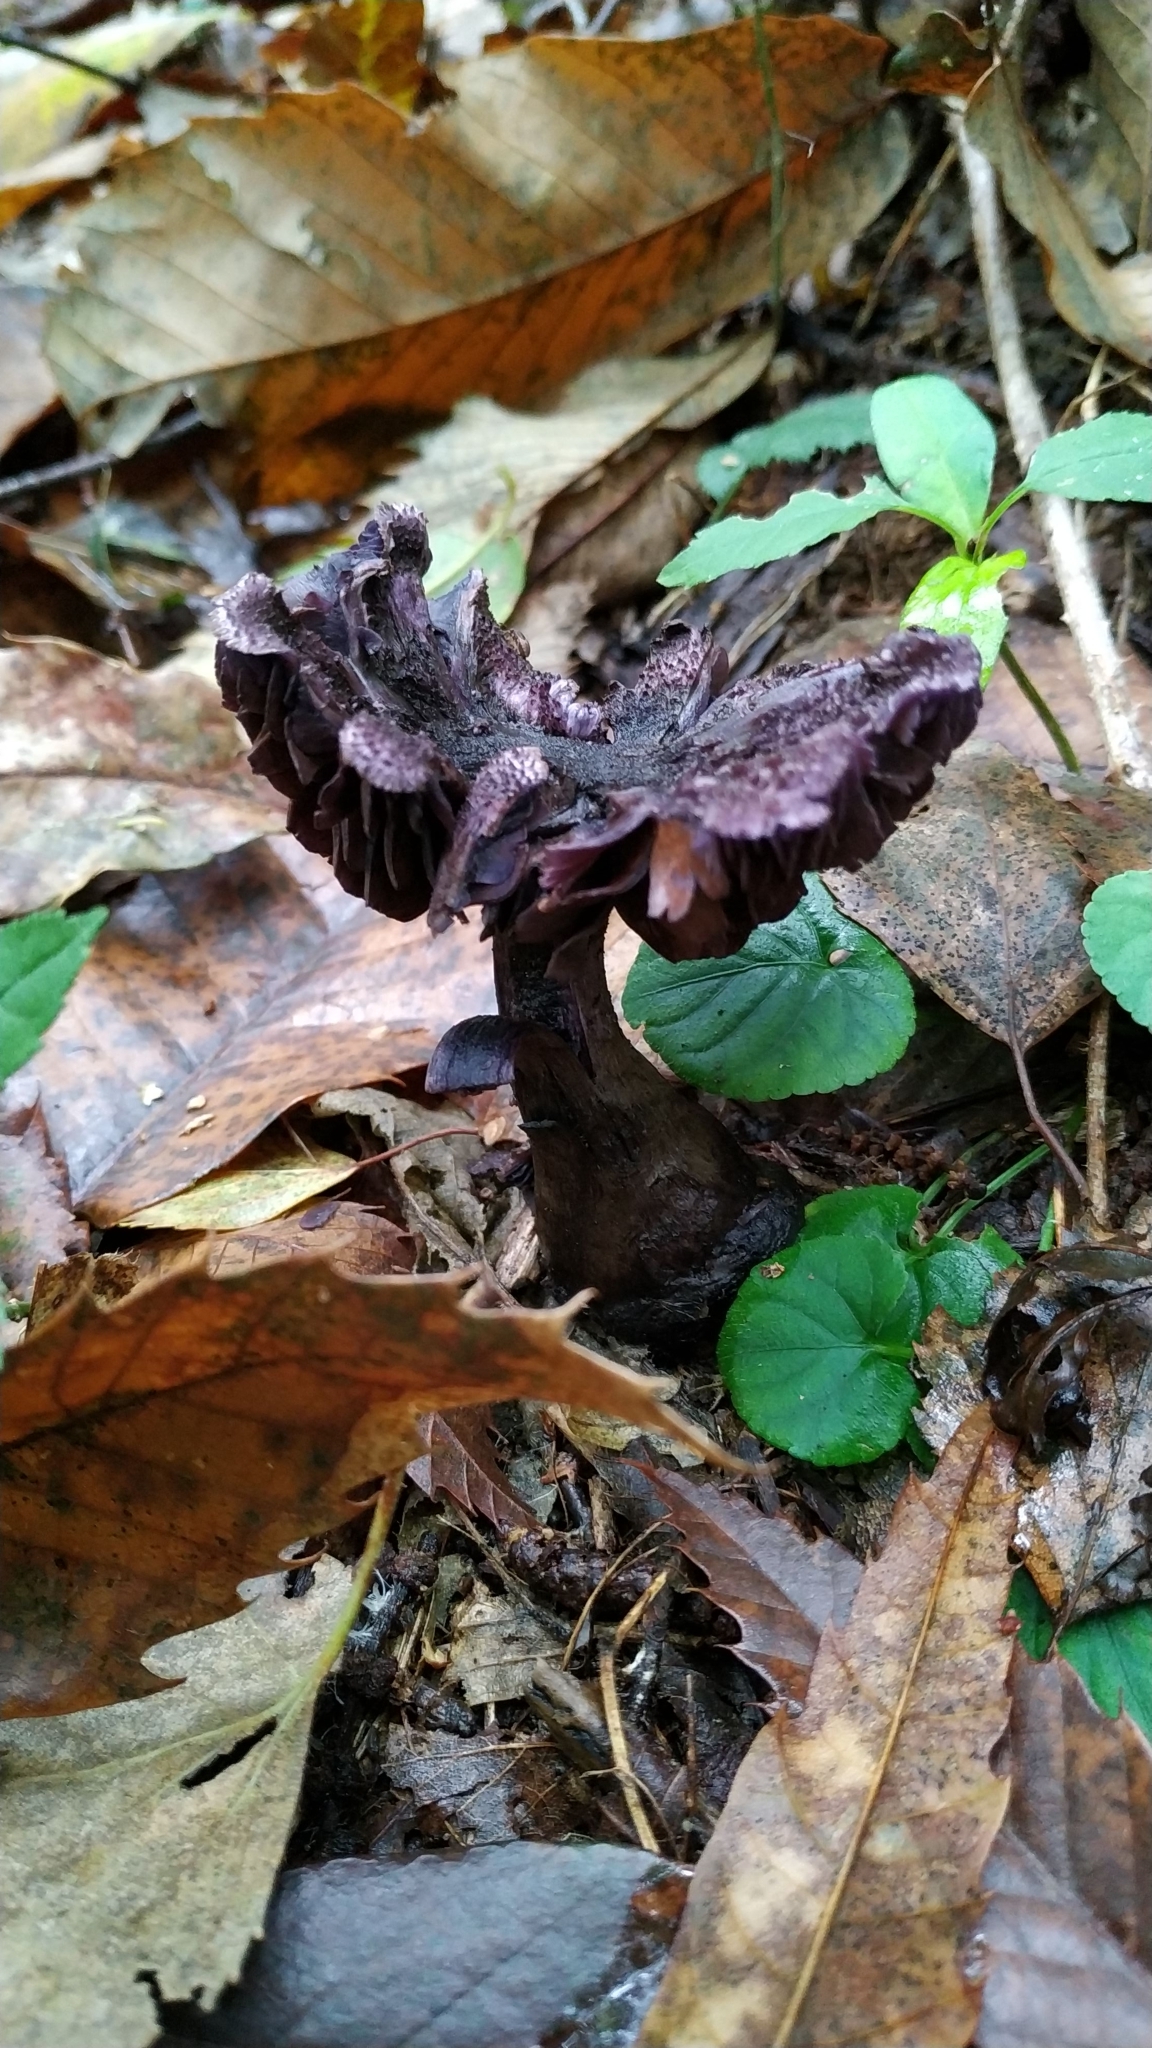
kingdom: Fungi
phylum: Basidiomycota
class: Agaricomycetes
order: Agaricales
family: Cortinariaceae
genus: Cortinarius
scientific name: Cortinarius violaceus
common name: Violet webcap
